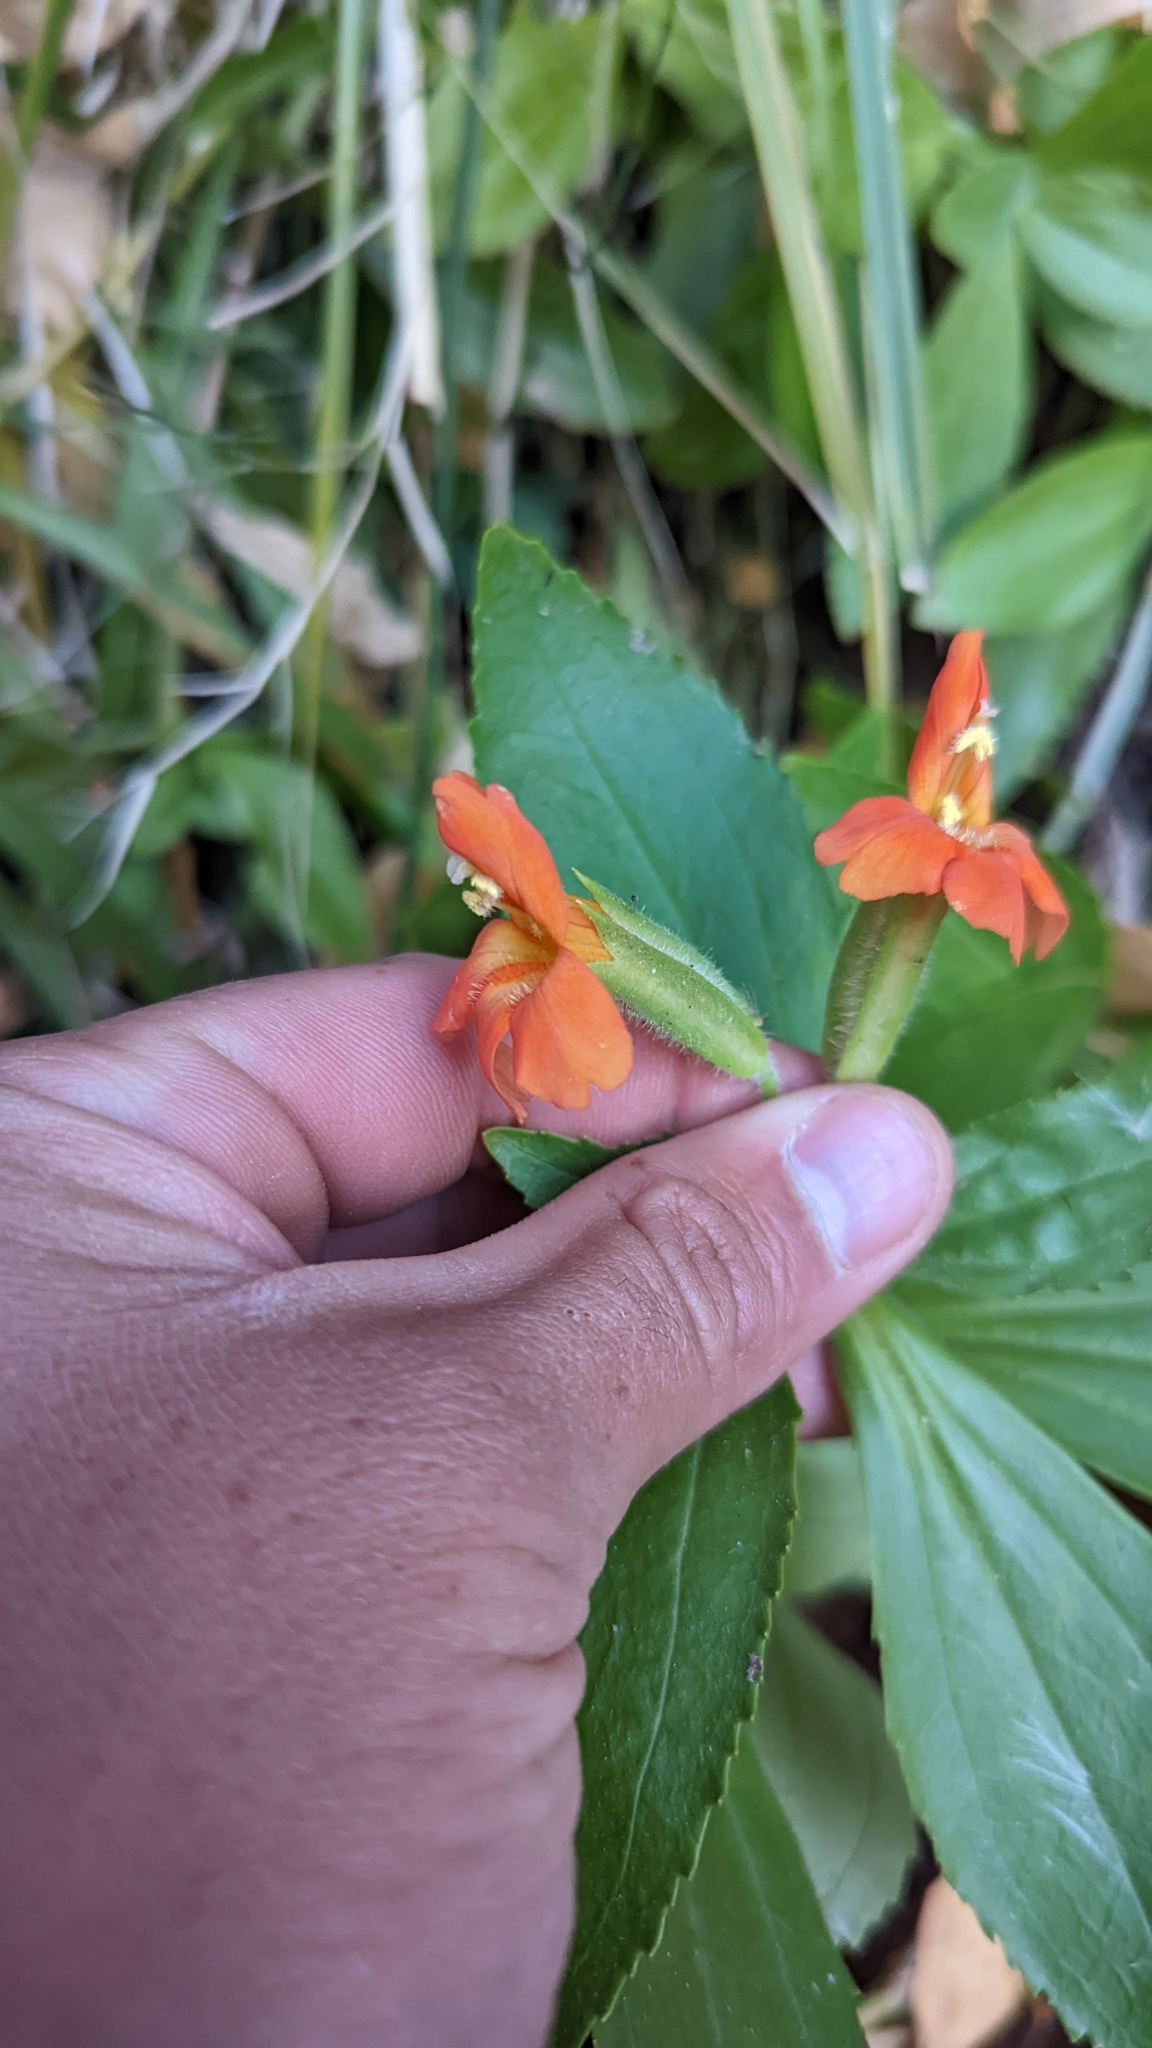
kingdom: Plantae
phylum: Tracheophyta
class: Magnoliopsida
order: Lamiales
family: Phrymaceae
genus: Erythranthe
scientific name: Erythranthe verbenacea
